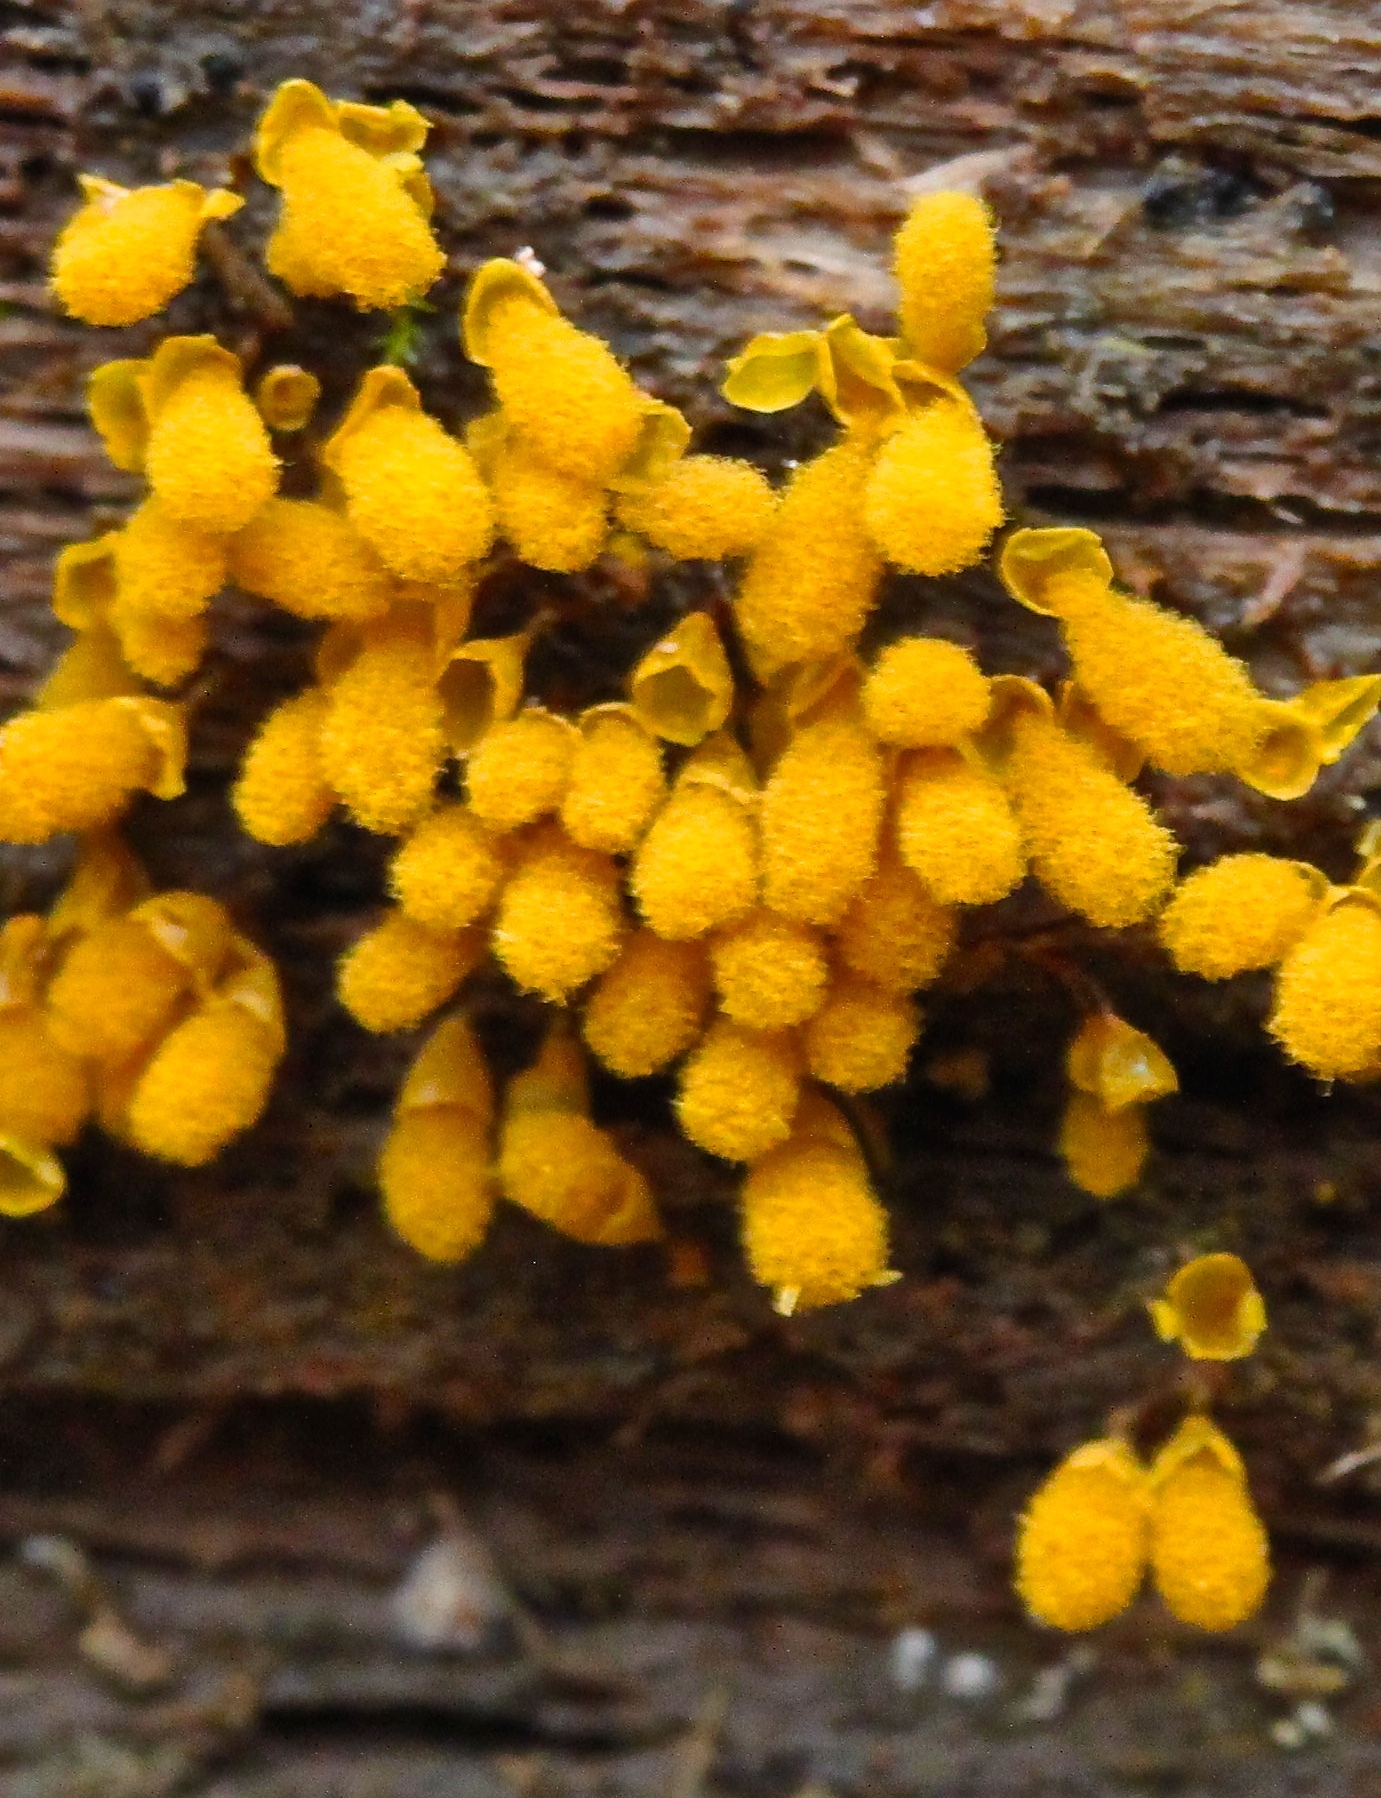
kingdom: Protozoa
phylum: Mycetozoa
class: Myxomycetes
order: Trichiales
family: Arcyriaceae
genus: Hemitrichia
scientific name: Hemitrichia calyculata
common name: Push pin slime mold
